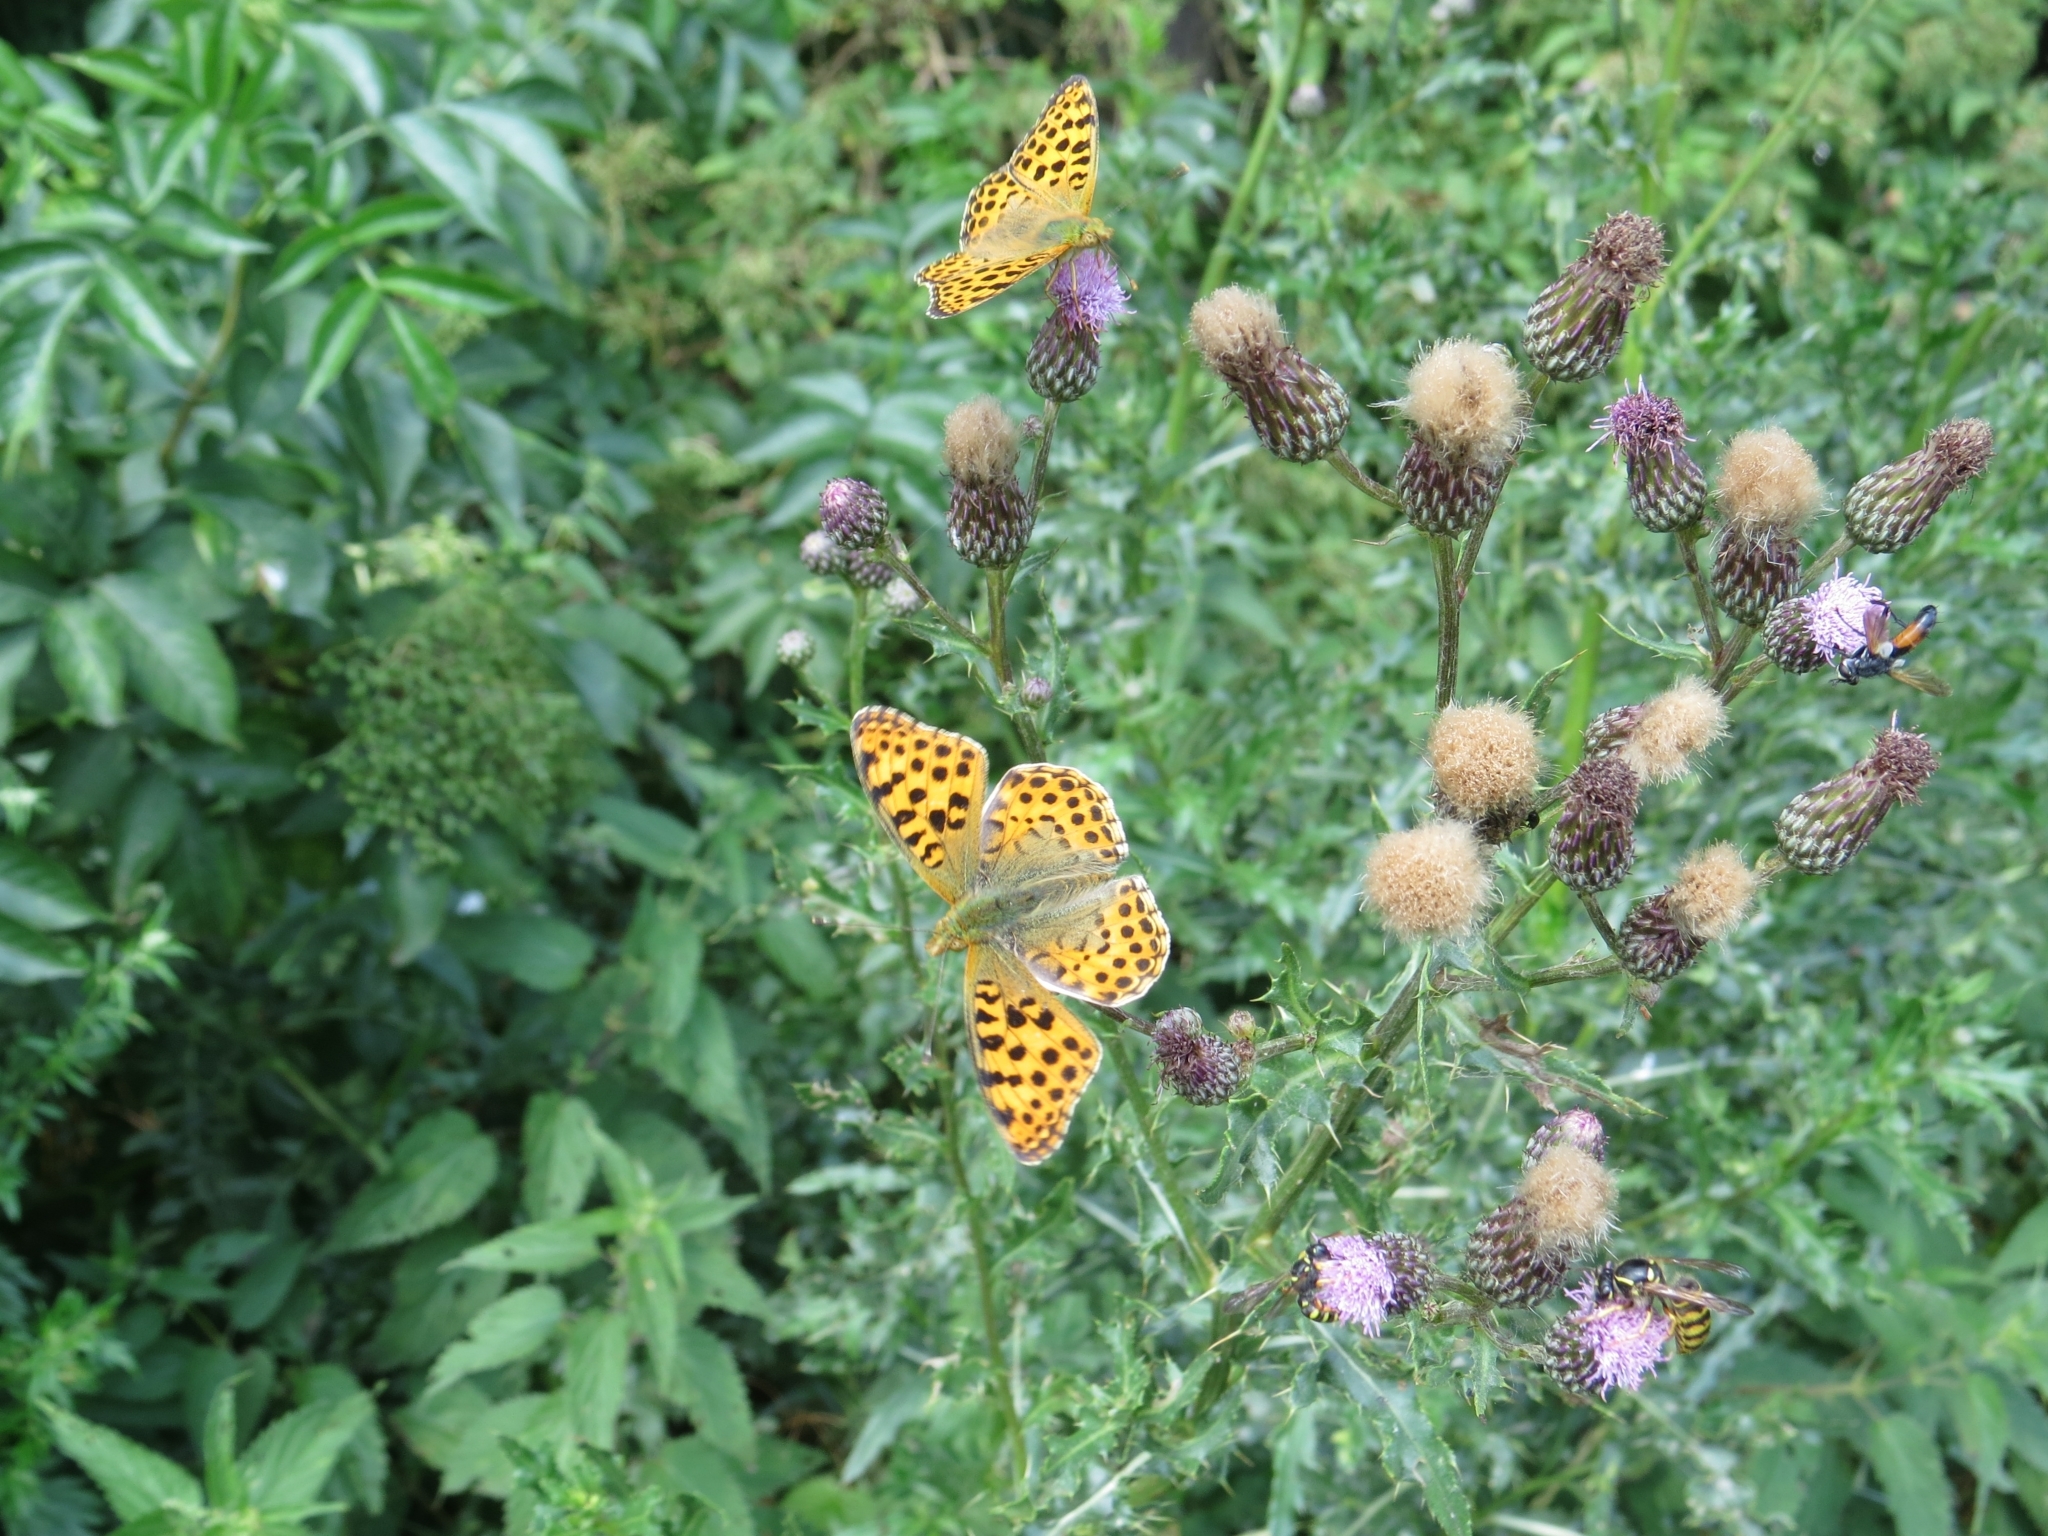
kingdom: Animalia
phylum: Arthropoda
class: Insecta
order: Lepidoptera
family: Nymphalidae
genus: Issoria
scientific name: Issoria lathonia
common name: Queen of spain fritillary
